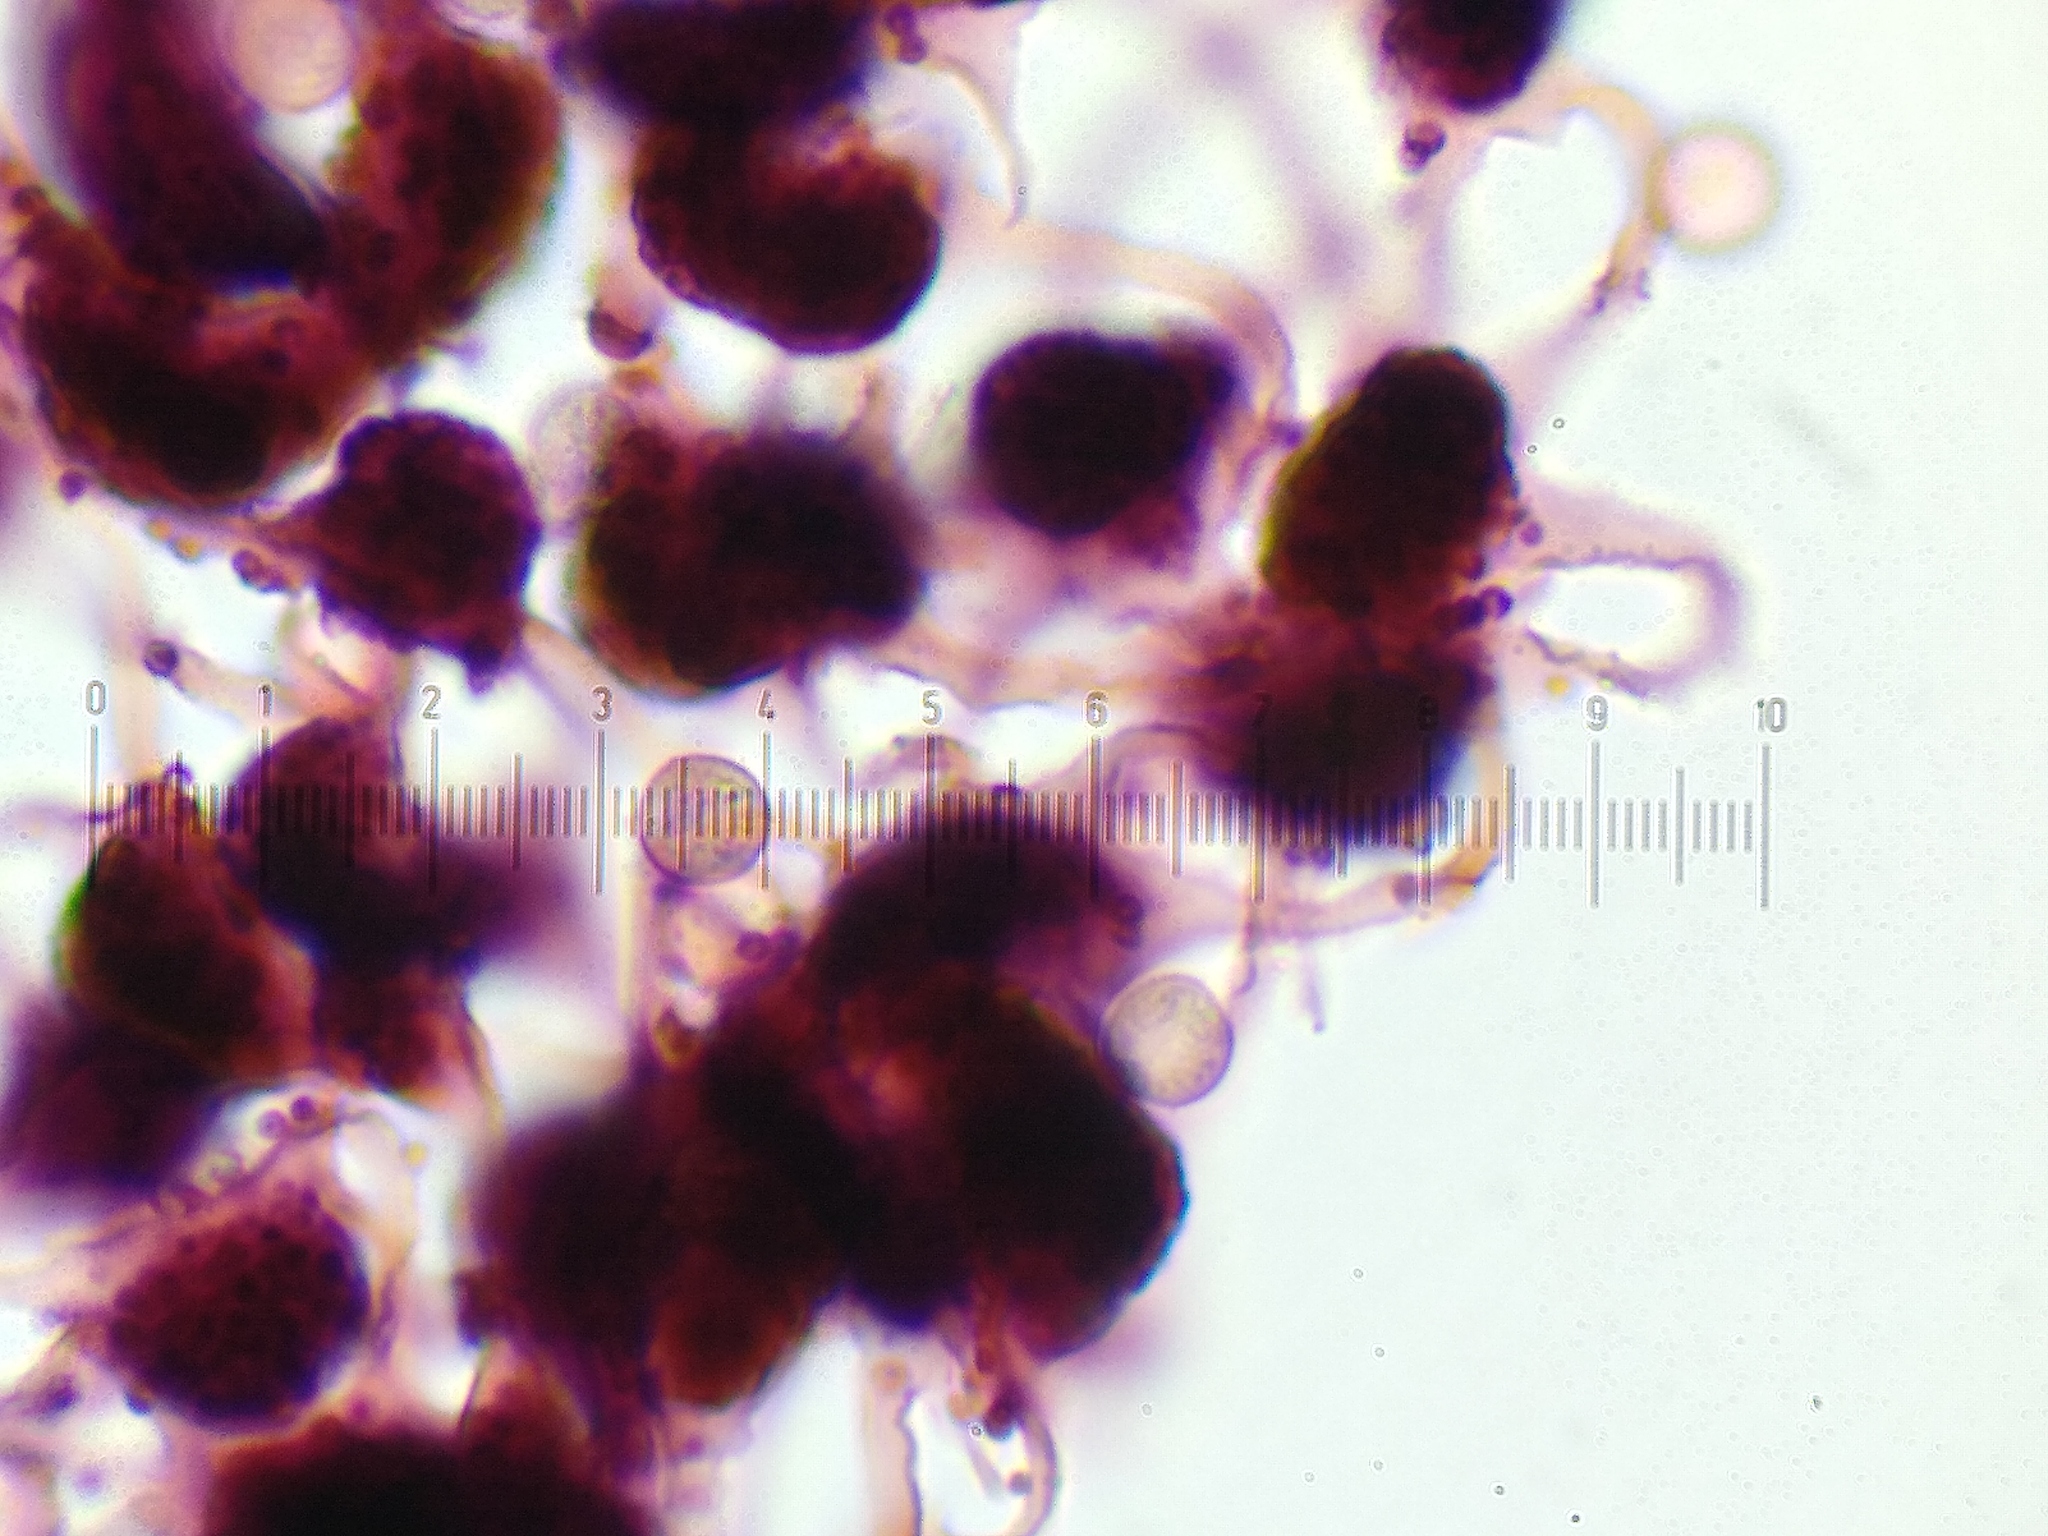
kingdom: Protozoa
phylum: Mycetozoa
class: Myxomycetes
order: Cribrariales
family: Cribrariaceae
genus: Cribraria
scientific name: Cribraria microcarpa
